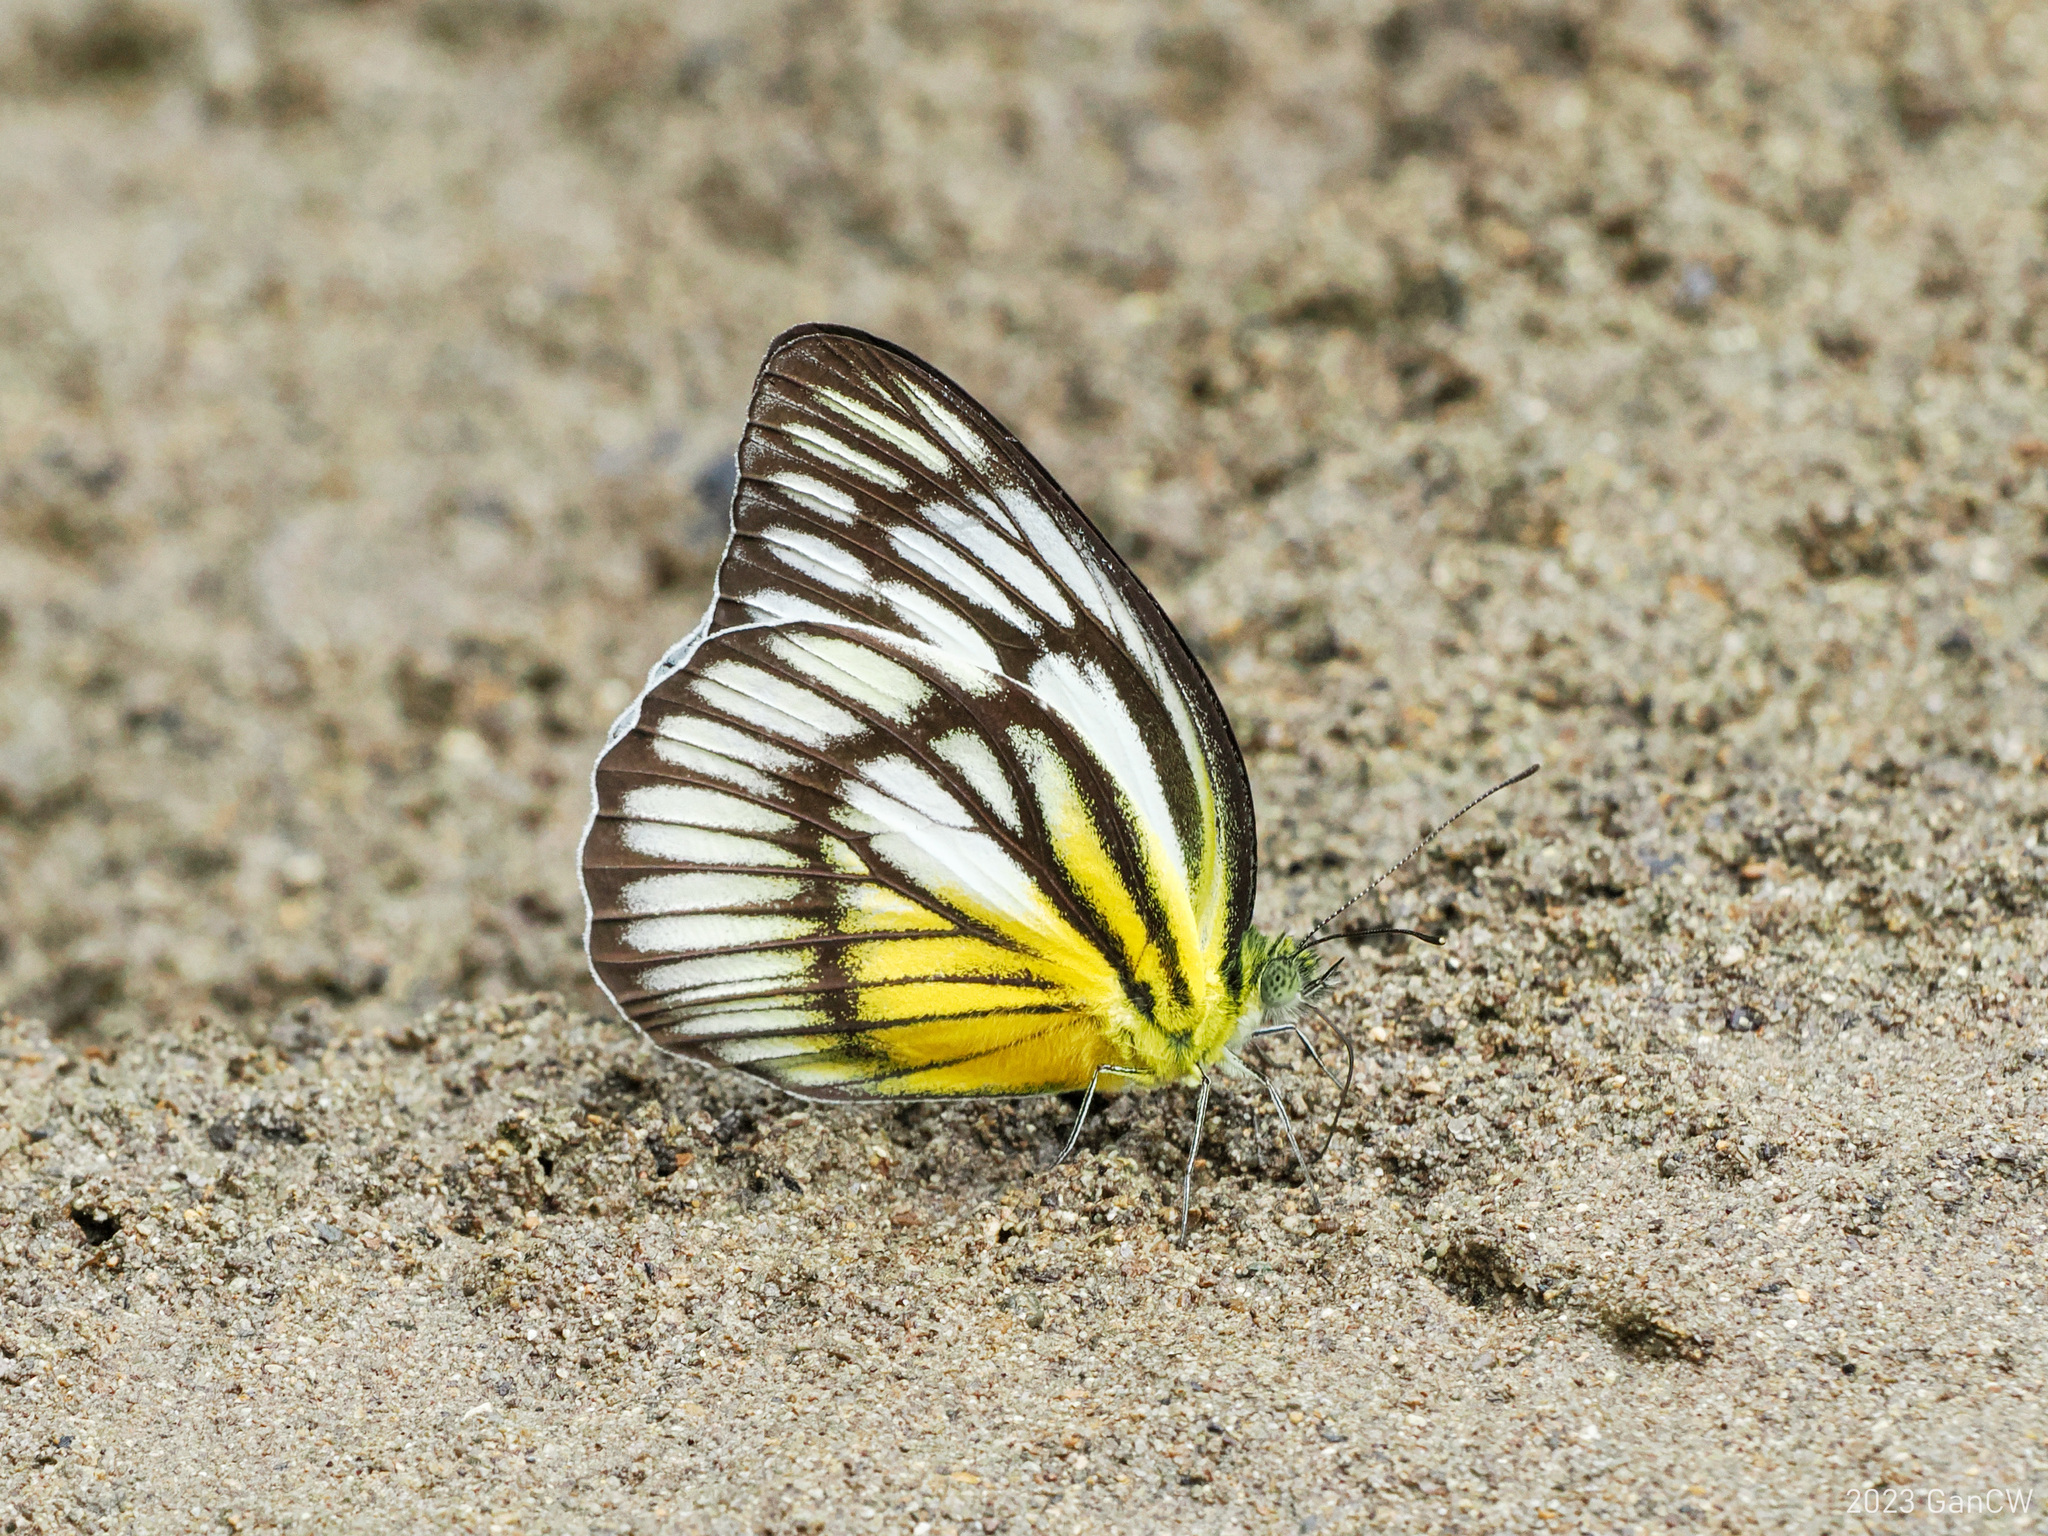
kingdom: Animalia
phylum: Arthropoda
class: Insecta
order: Lepidoptera
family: Pieridae
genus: Cepora
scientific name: Cepora celebensis
